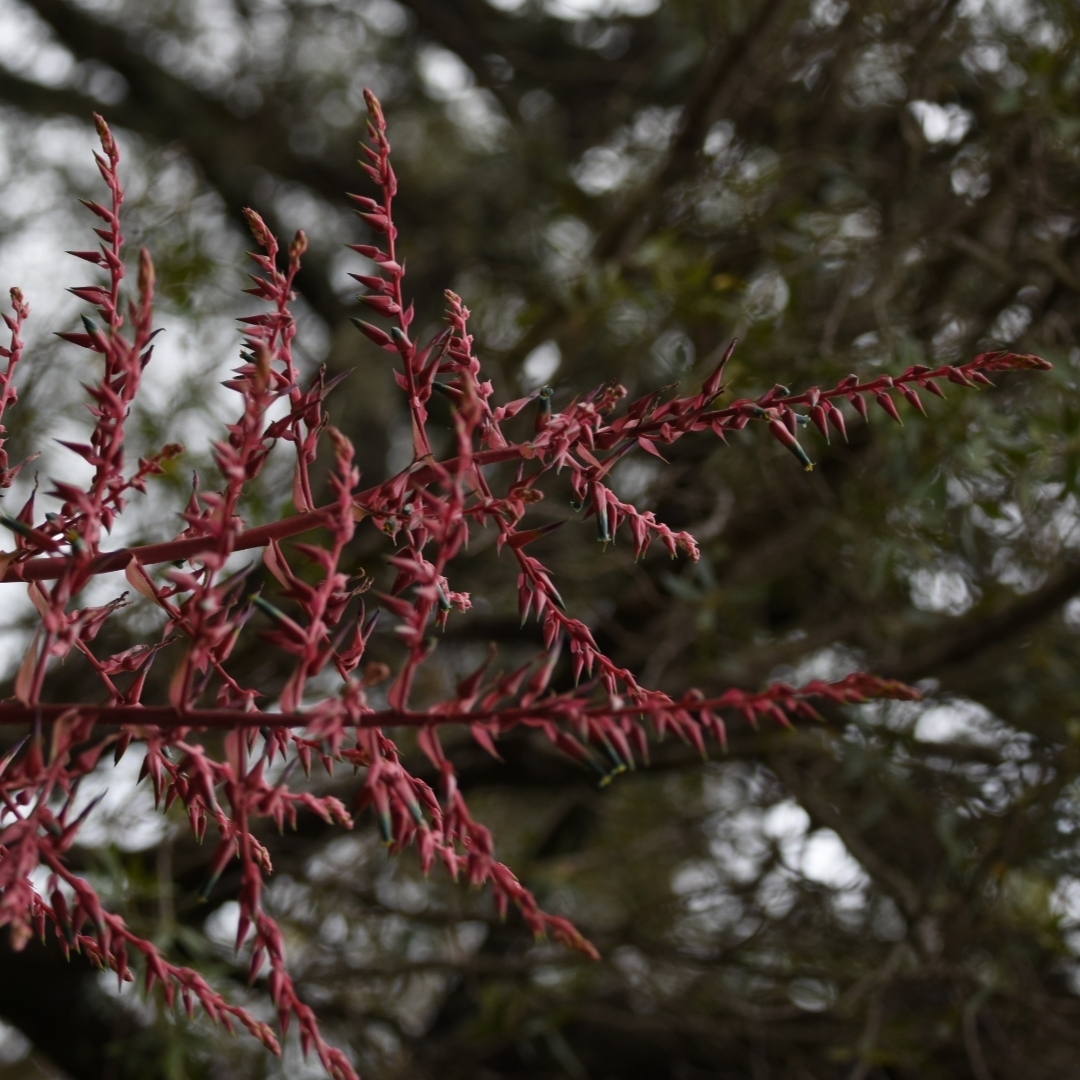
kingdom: Plantae
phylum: Tracheophyta
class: Liliopsida
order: Poales
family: Bromeliaceae
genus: Puya
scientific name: Puya spathacea
